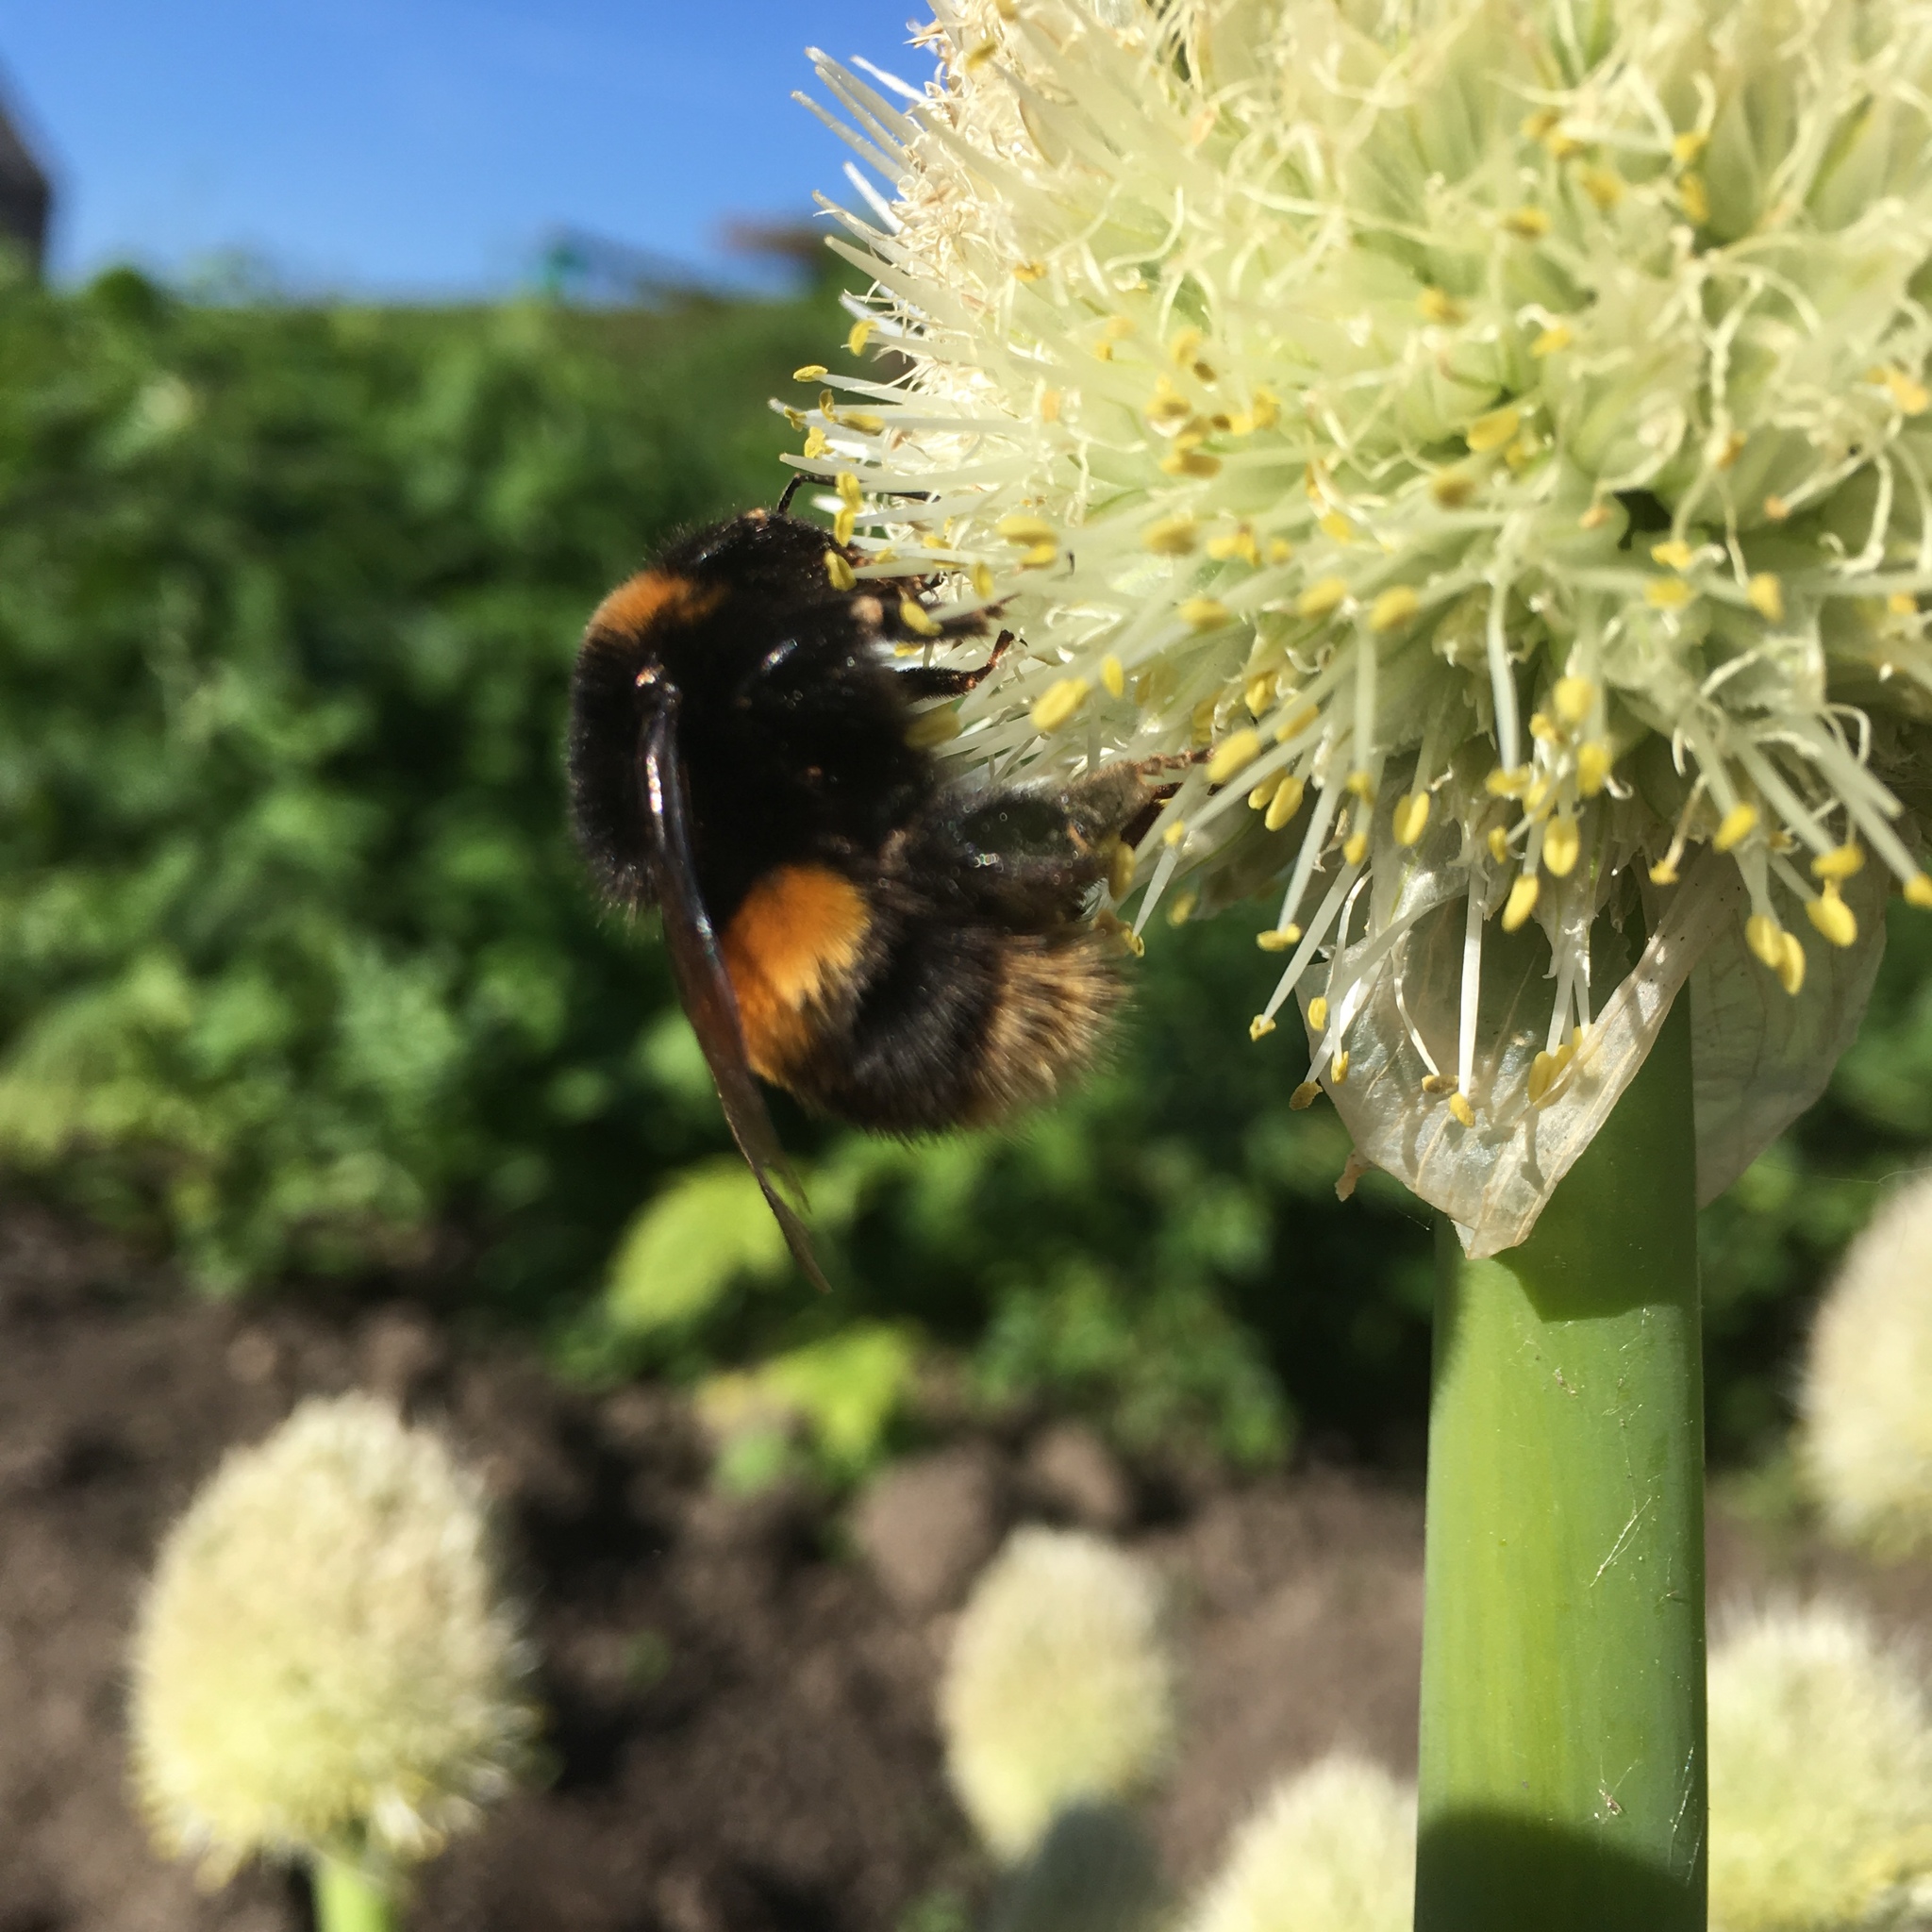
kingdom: Animalia
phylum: Arthropoda
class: Insecta
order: Hymenoptera
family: Apidae
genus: Bombus
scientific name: Bombus terrestris
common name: Buff-tailed bumblebee
